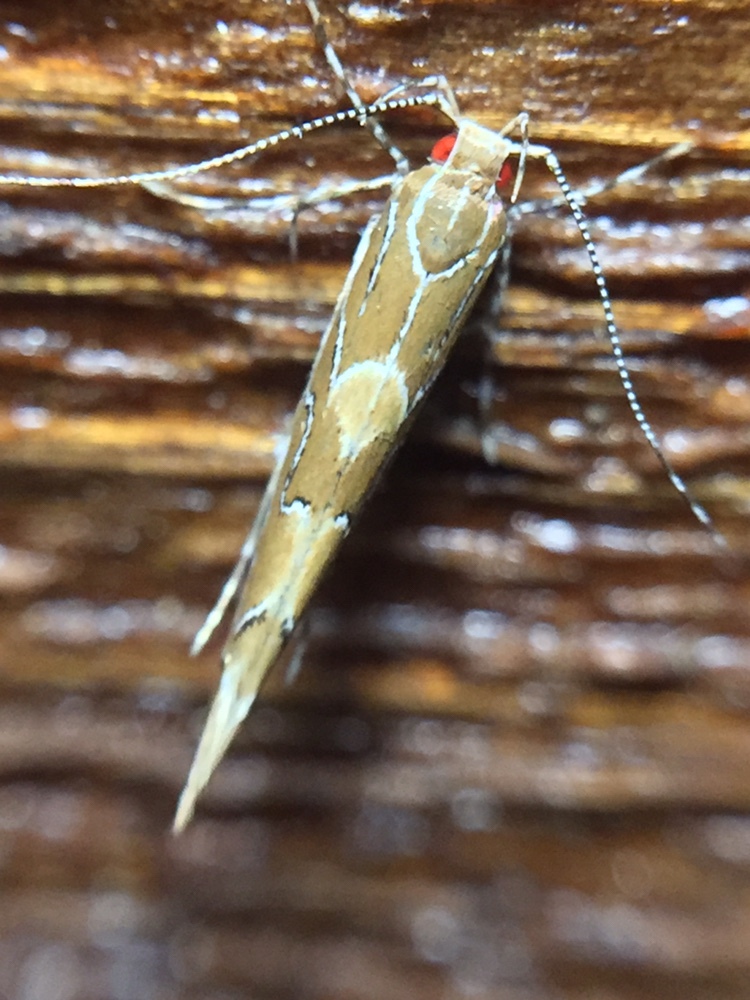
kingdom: Animalia
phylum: Arthropoda
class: Insecta
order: Lepidoptera
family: Cosmopterigidae
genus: Pyroderces
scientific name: Pyroderces apparitella
